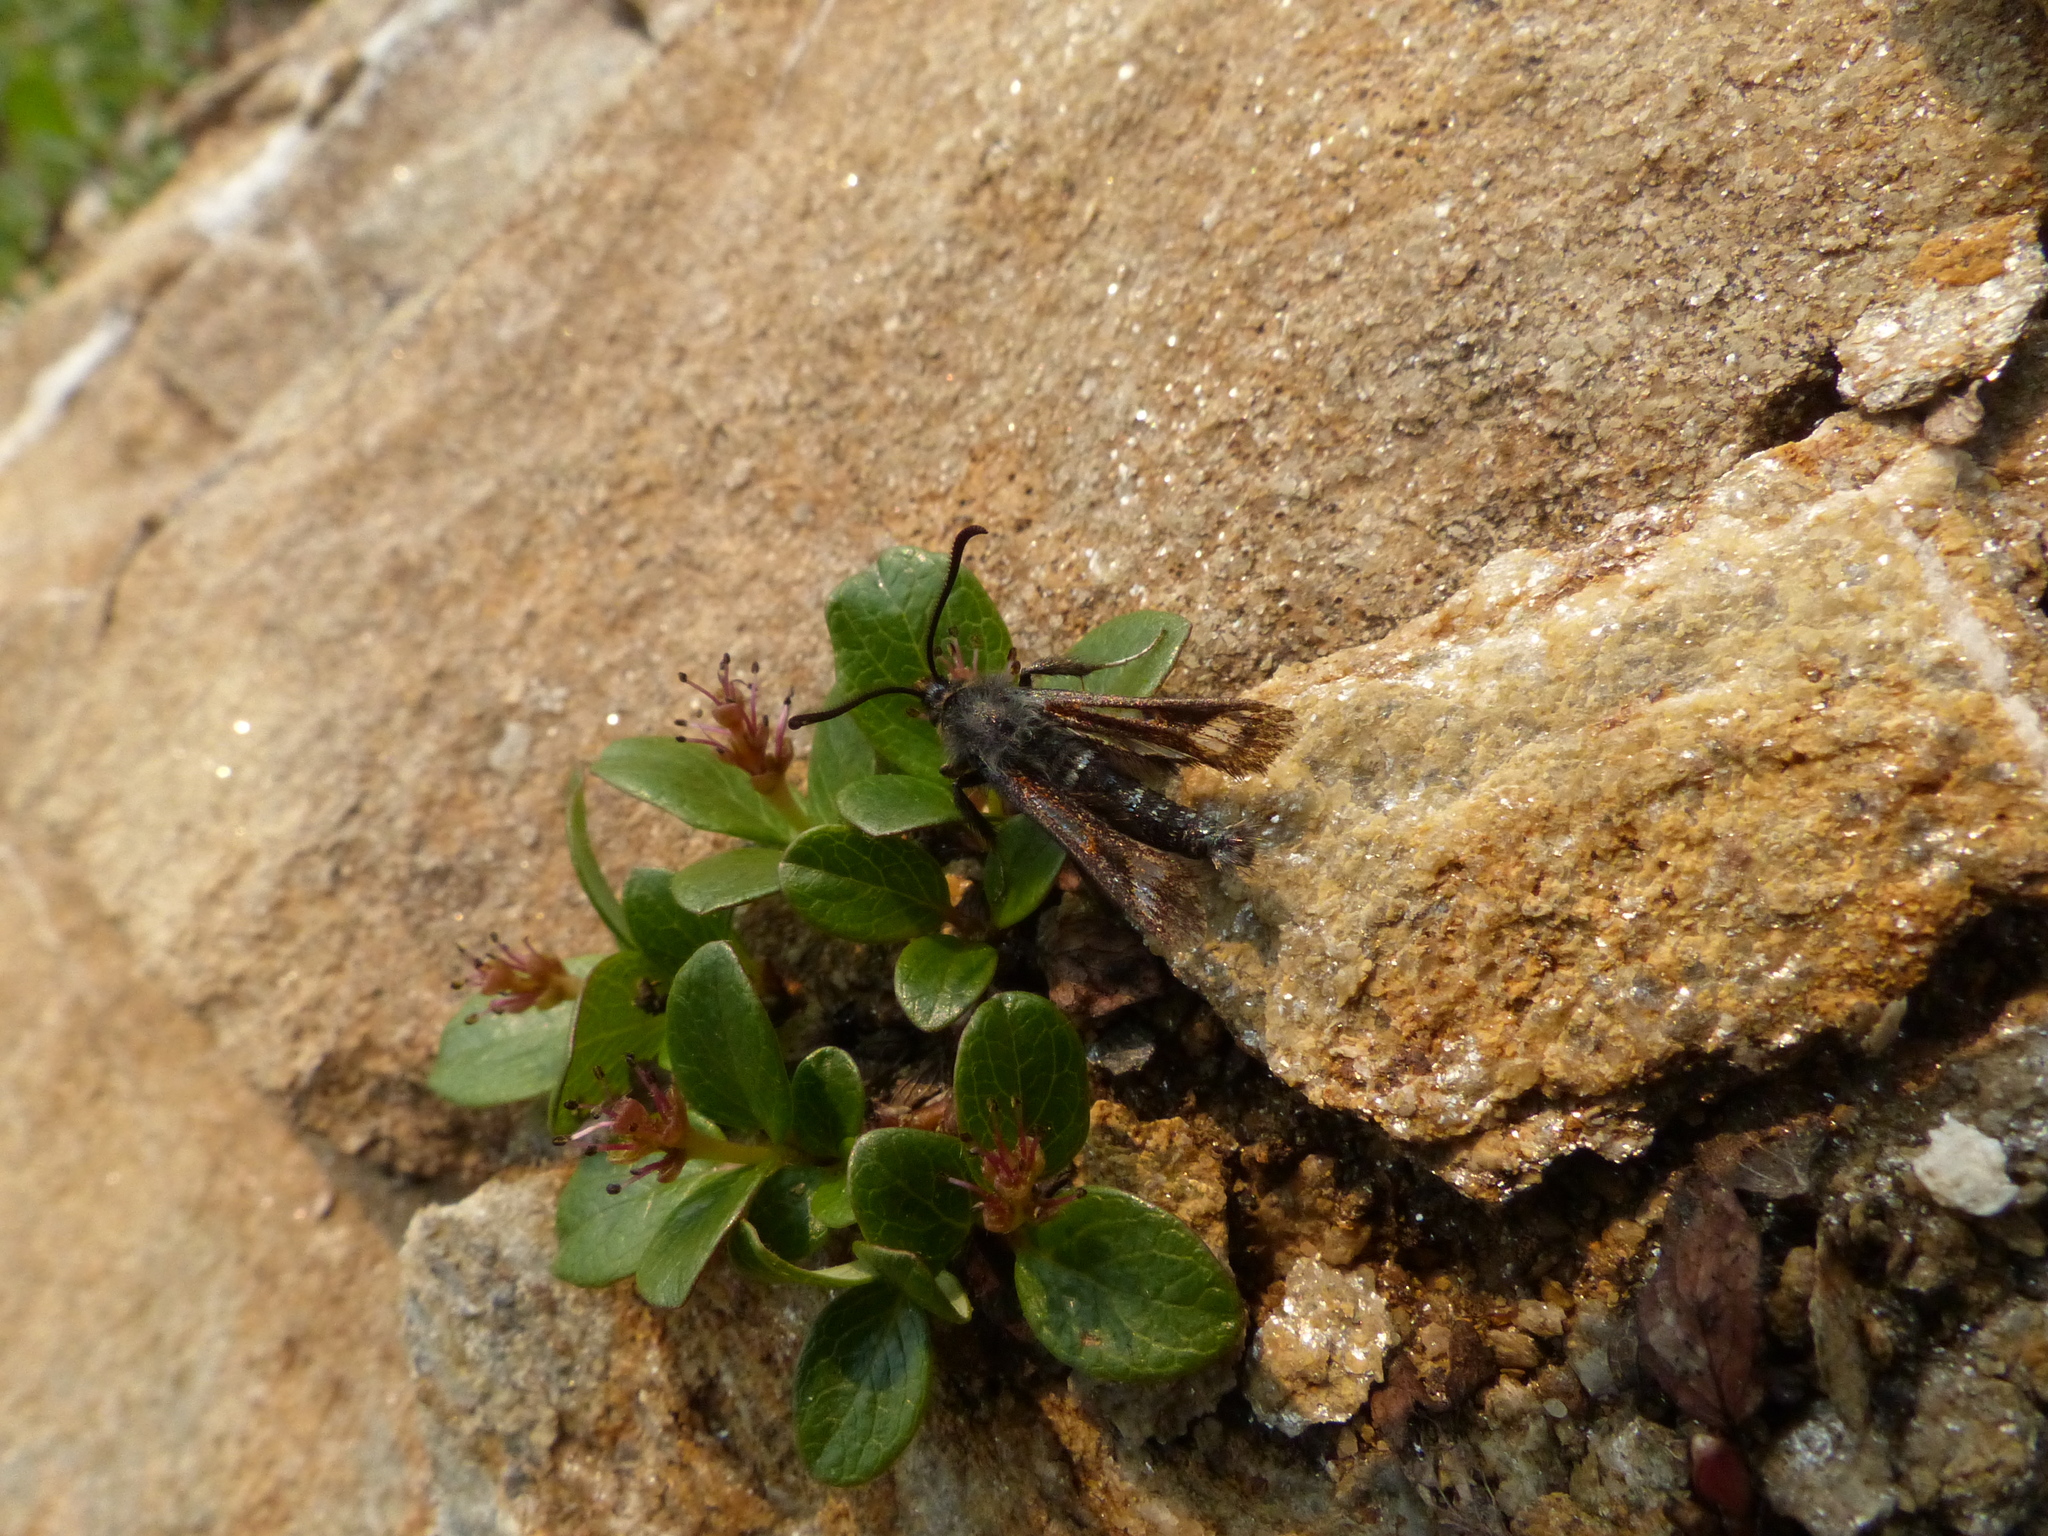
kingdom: Animalia
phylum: Arthropoda
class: Insecta
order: Lepidoptera
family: Sesiidae
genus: Albuna
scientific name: Albuna pyramidalis
